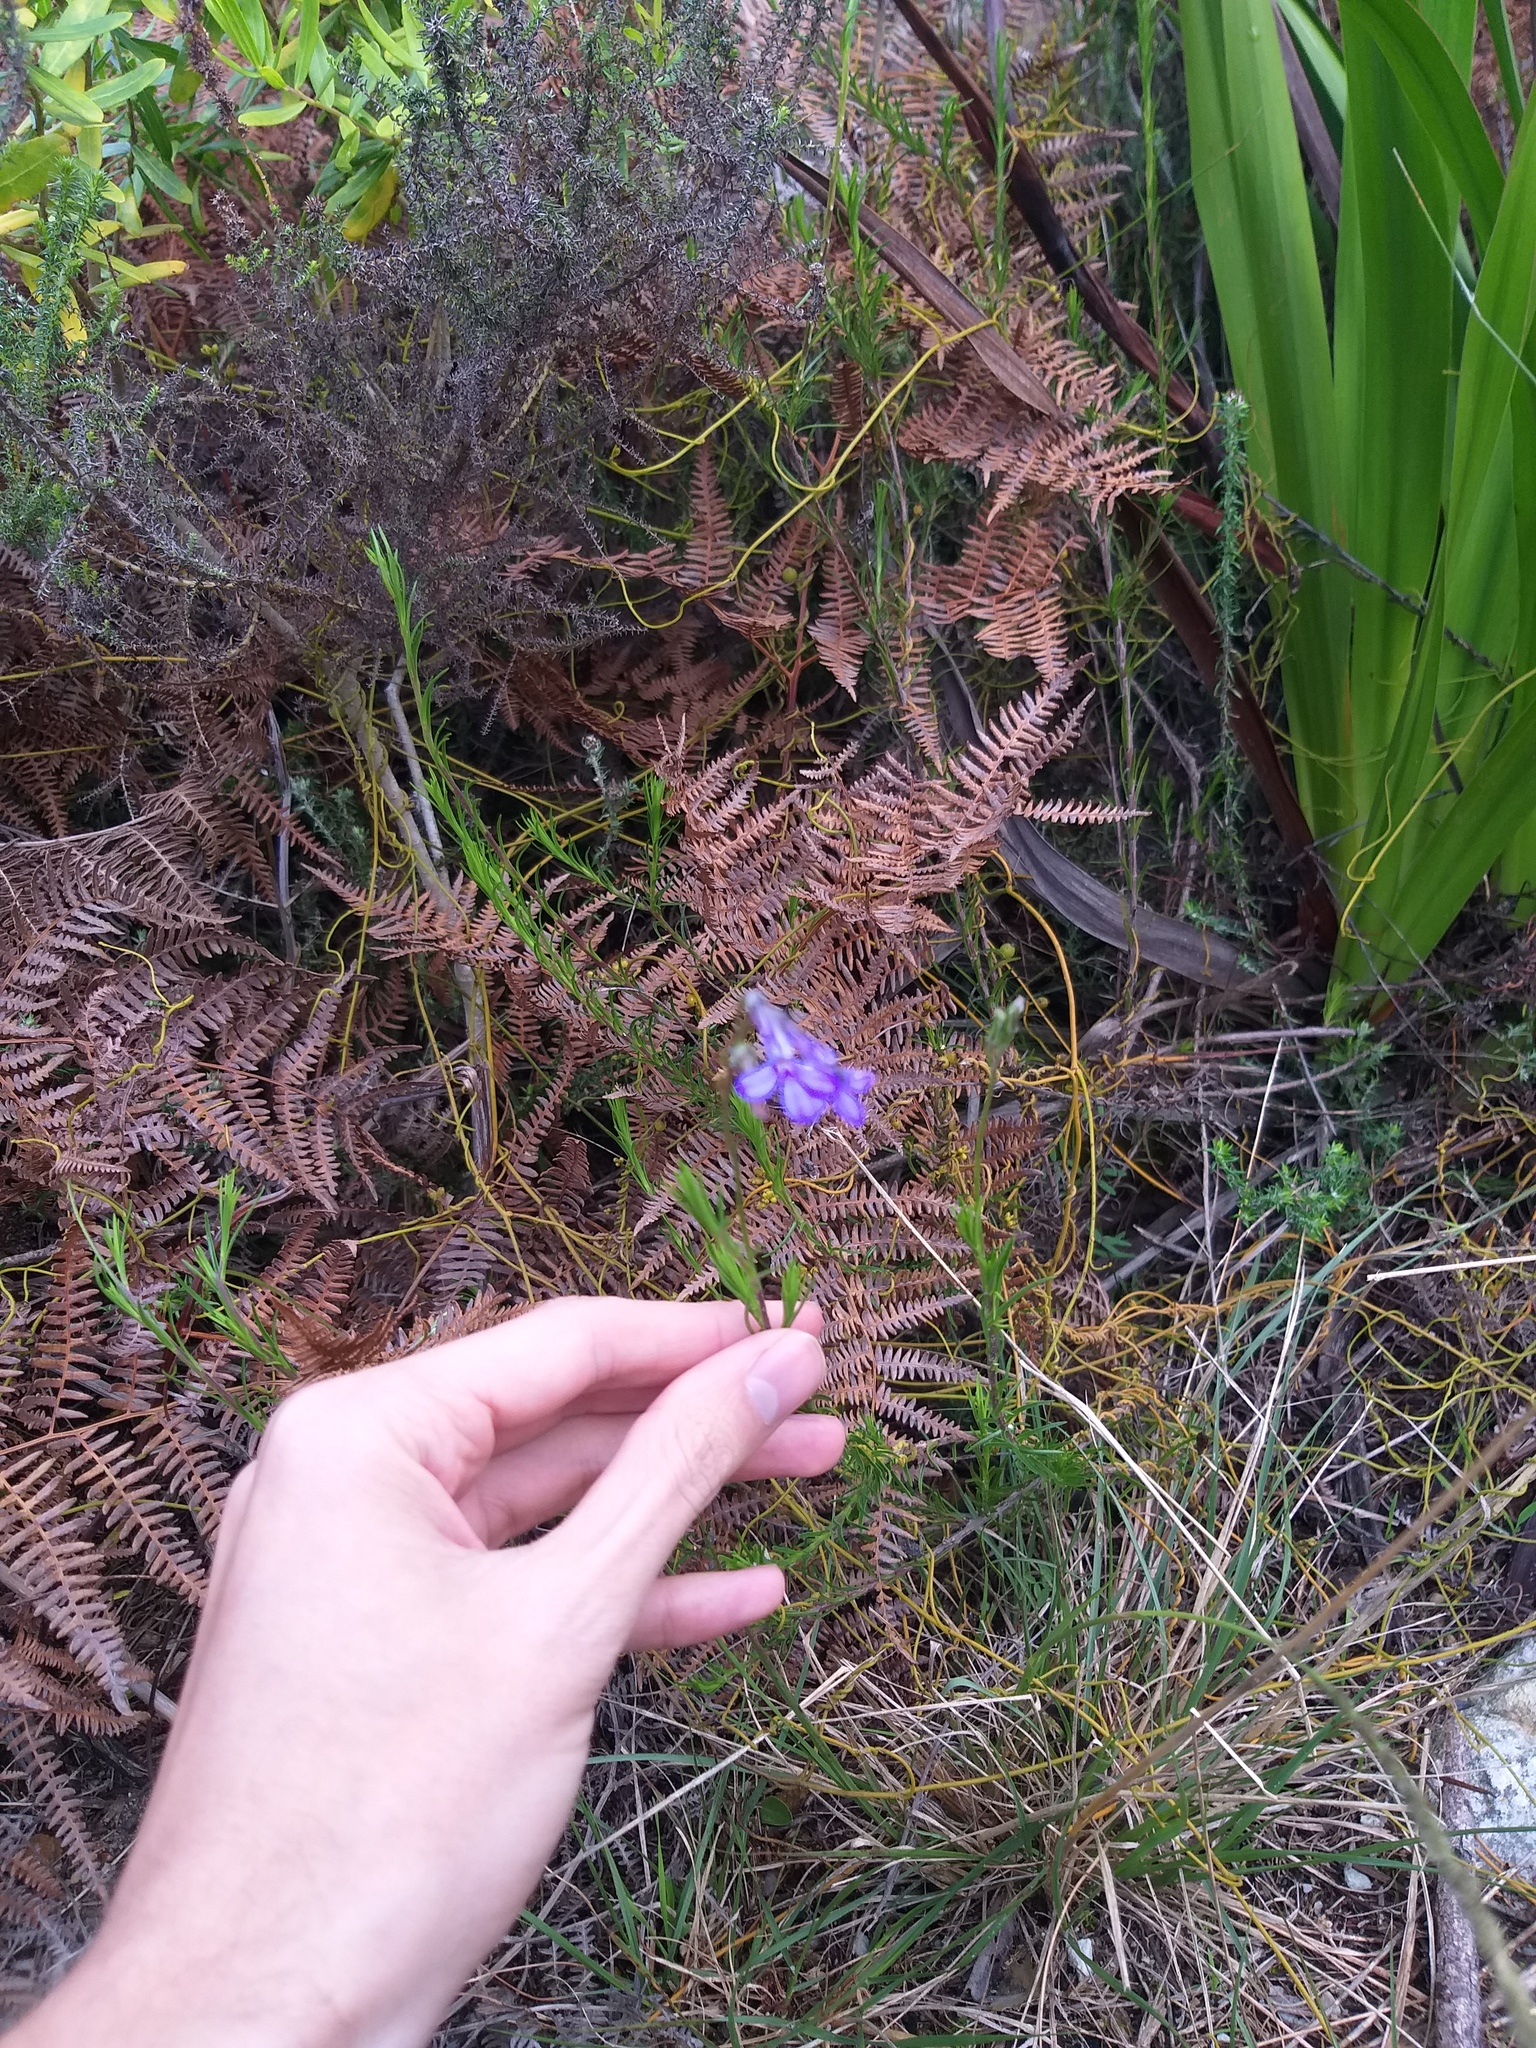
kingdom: Plantae
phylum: Tracheophyta
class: Magnoliopsida
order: Asterales
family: Campanulaceae
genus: Lobelia
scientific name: Lobelia pinifolia
